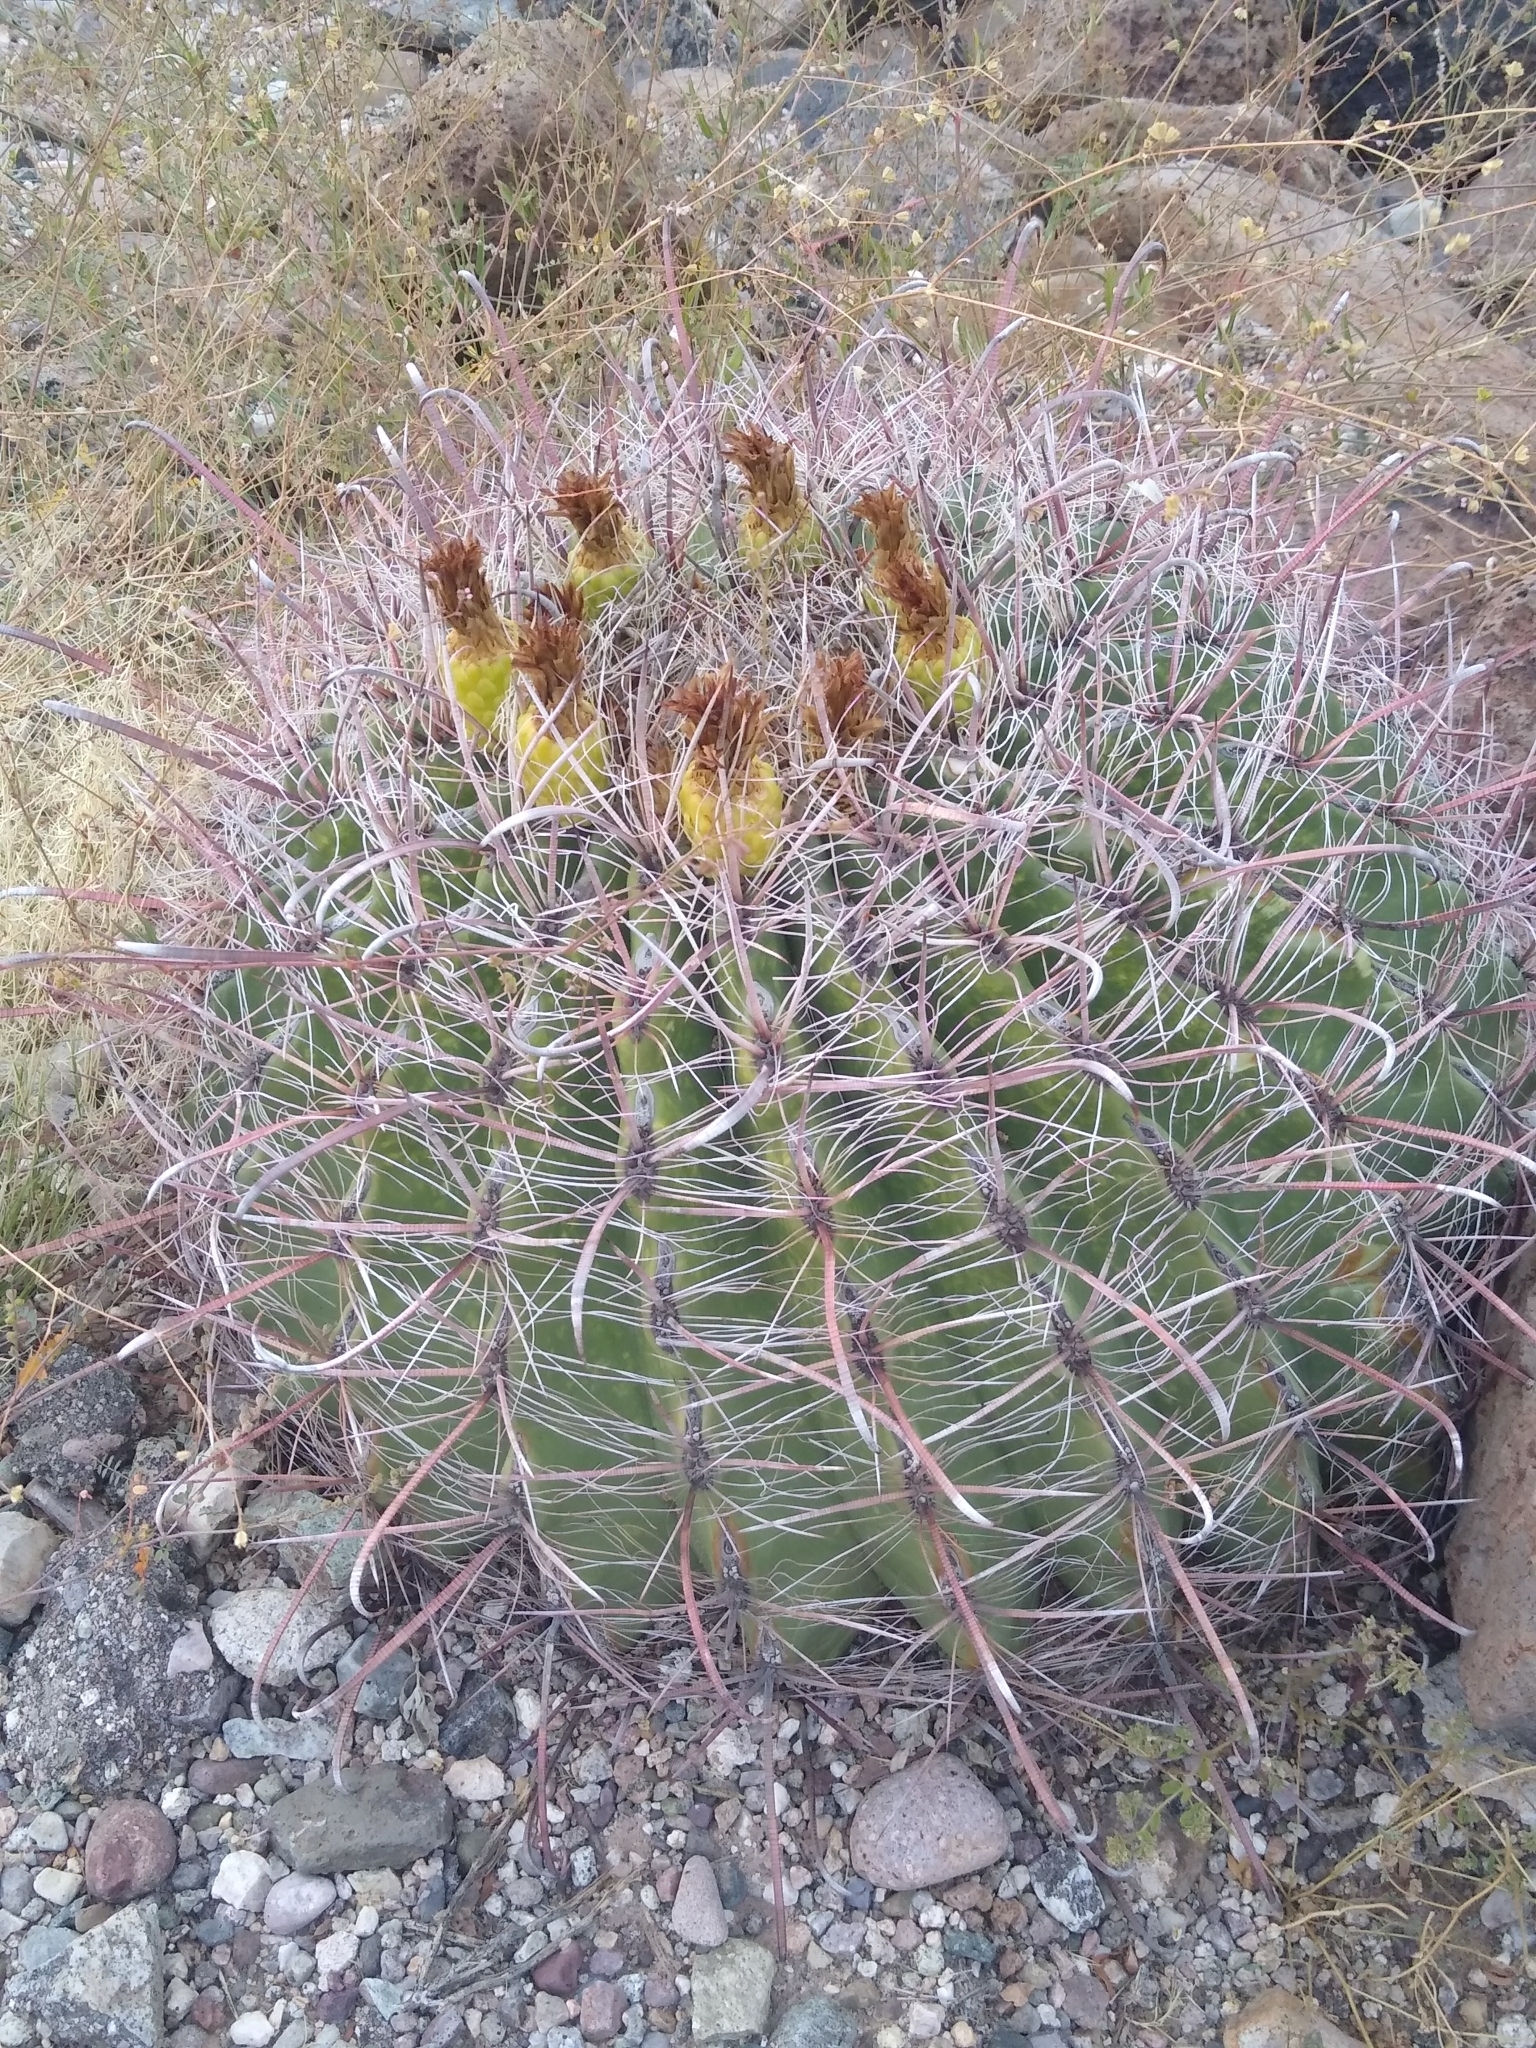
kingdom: Plantae
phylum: Tracheophyta
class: Magnoliopsida
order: Caryophyllales
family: Cactaceae
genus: Ferocactus
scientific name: Ferocactus wislizeni
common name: Candy barrel cactus
